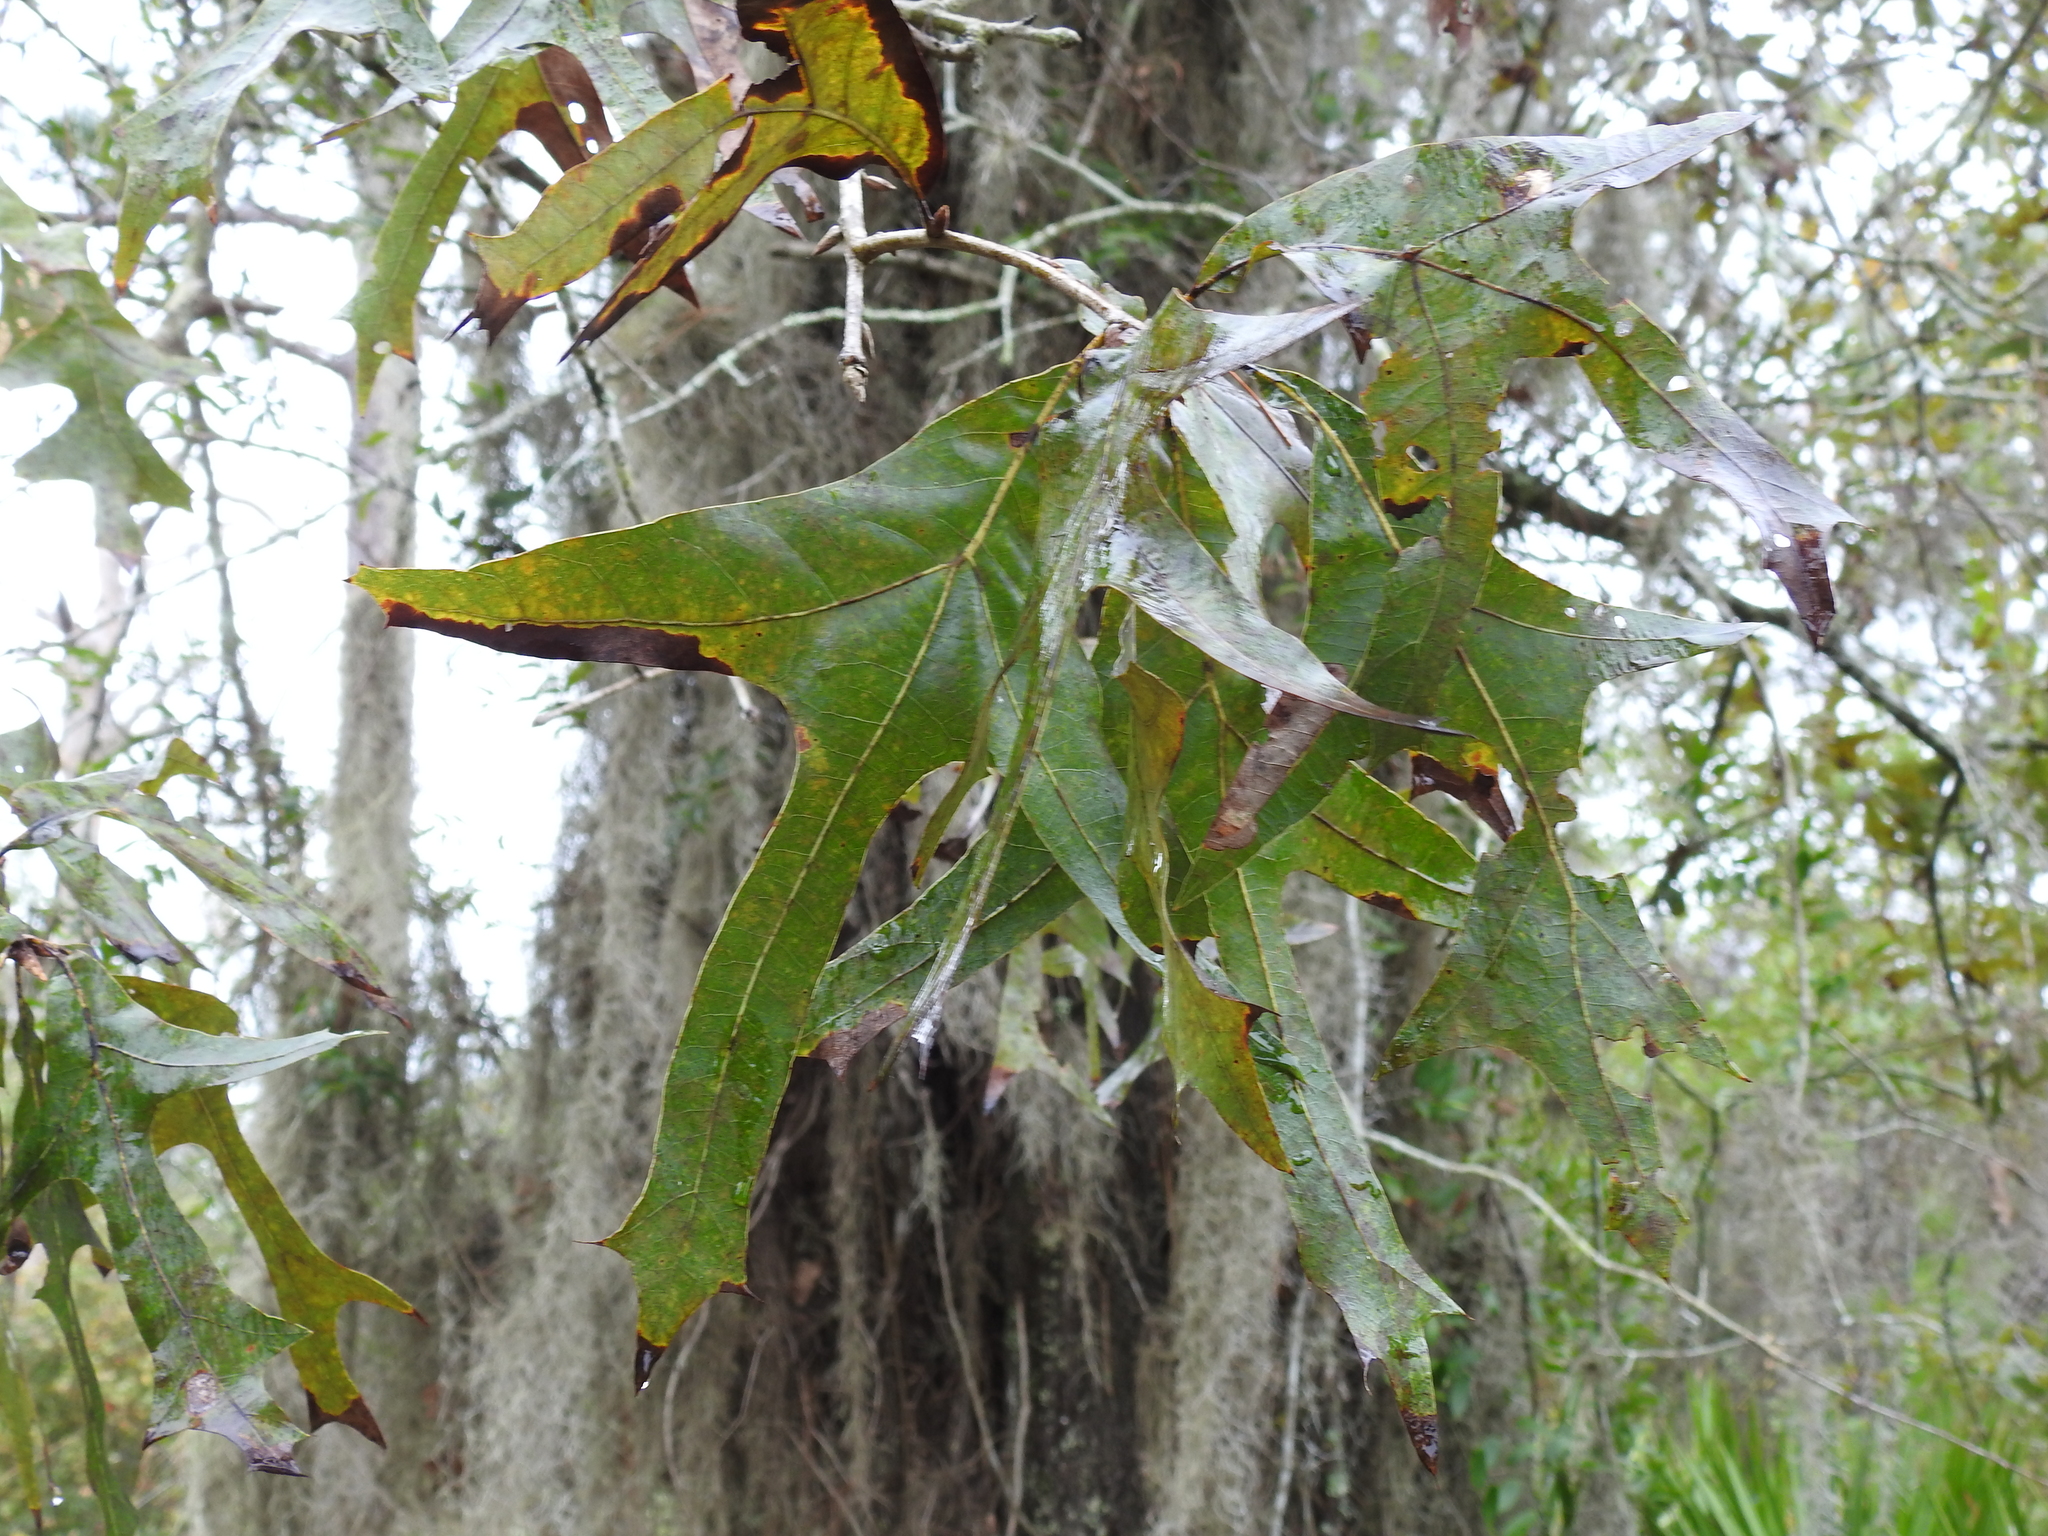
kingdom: Plantae
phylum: Tracheophyta
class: Magnoliopsida
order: Fagales
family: Fagaceae
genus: Quercus
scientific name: Quercus laevis
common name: Turkey oak
